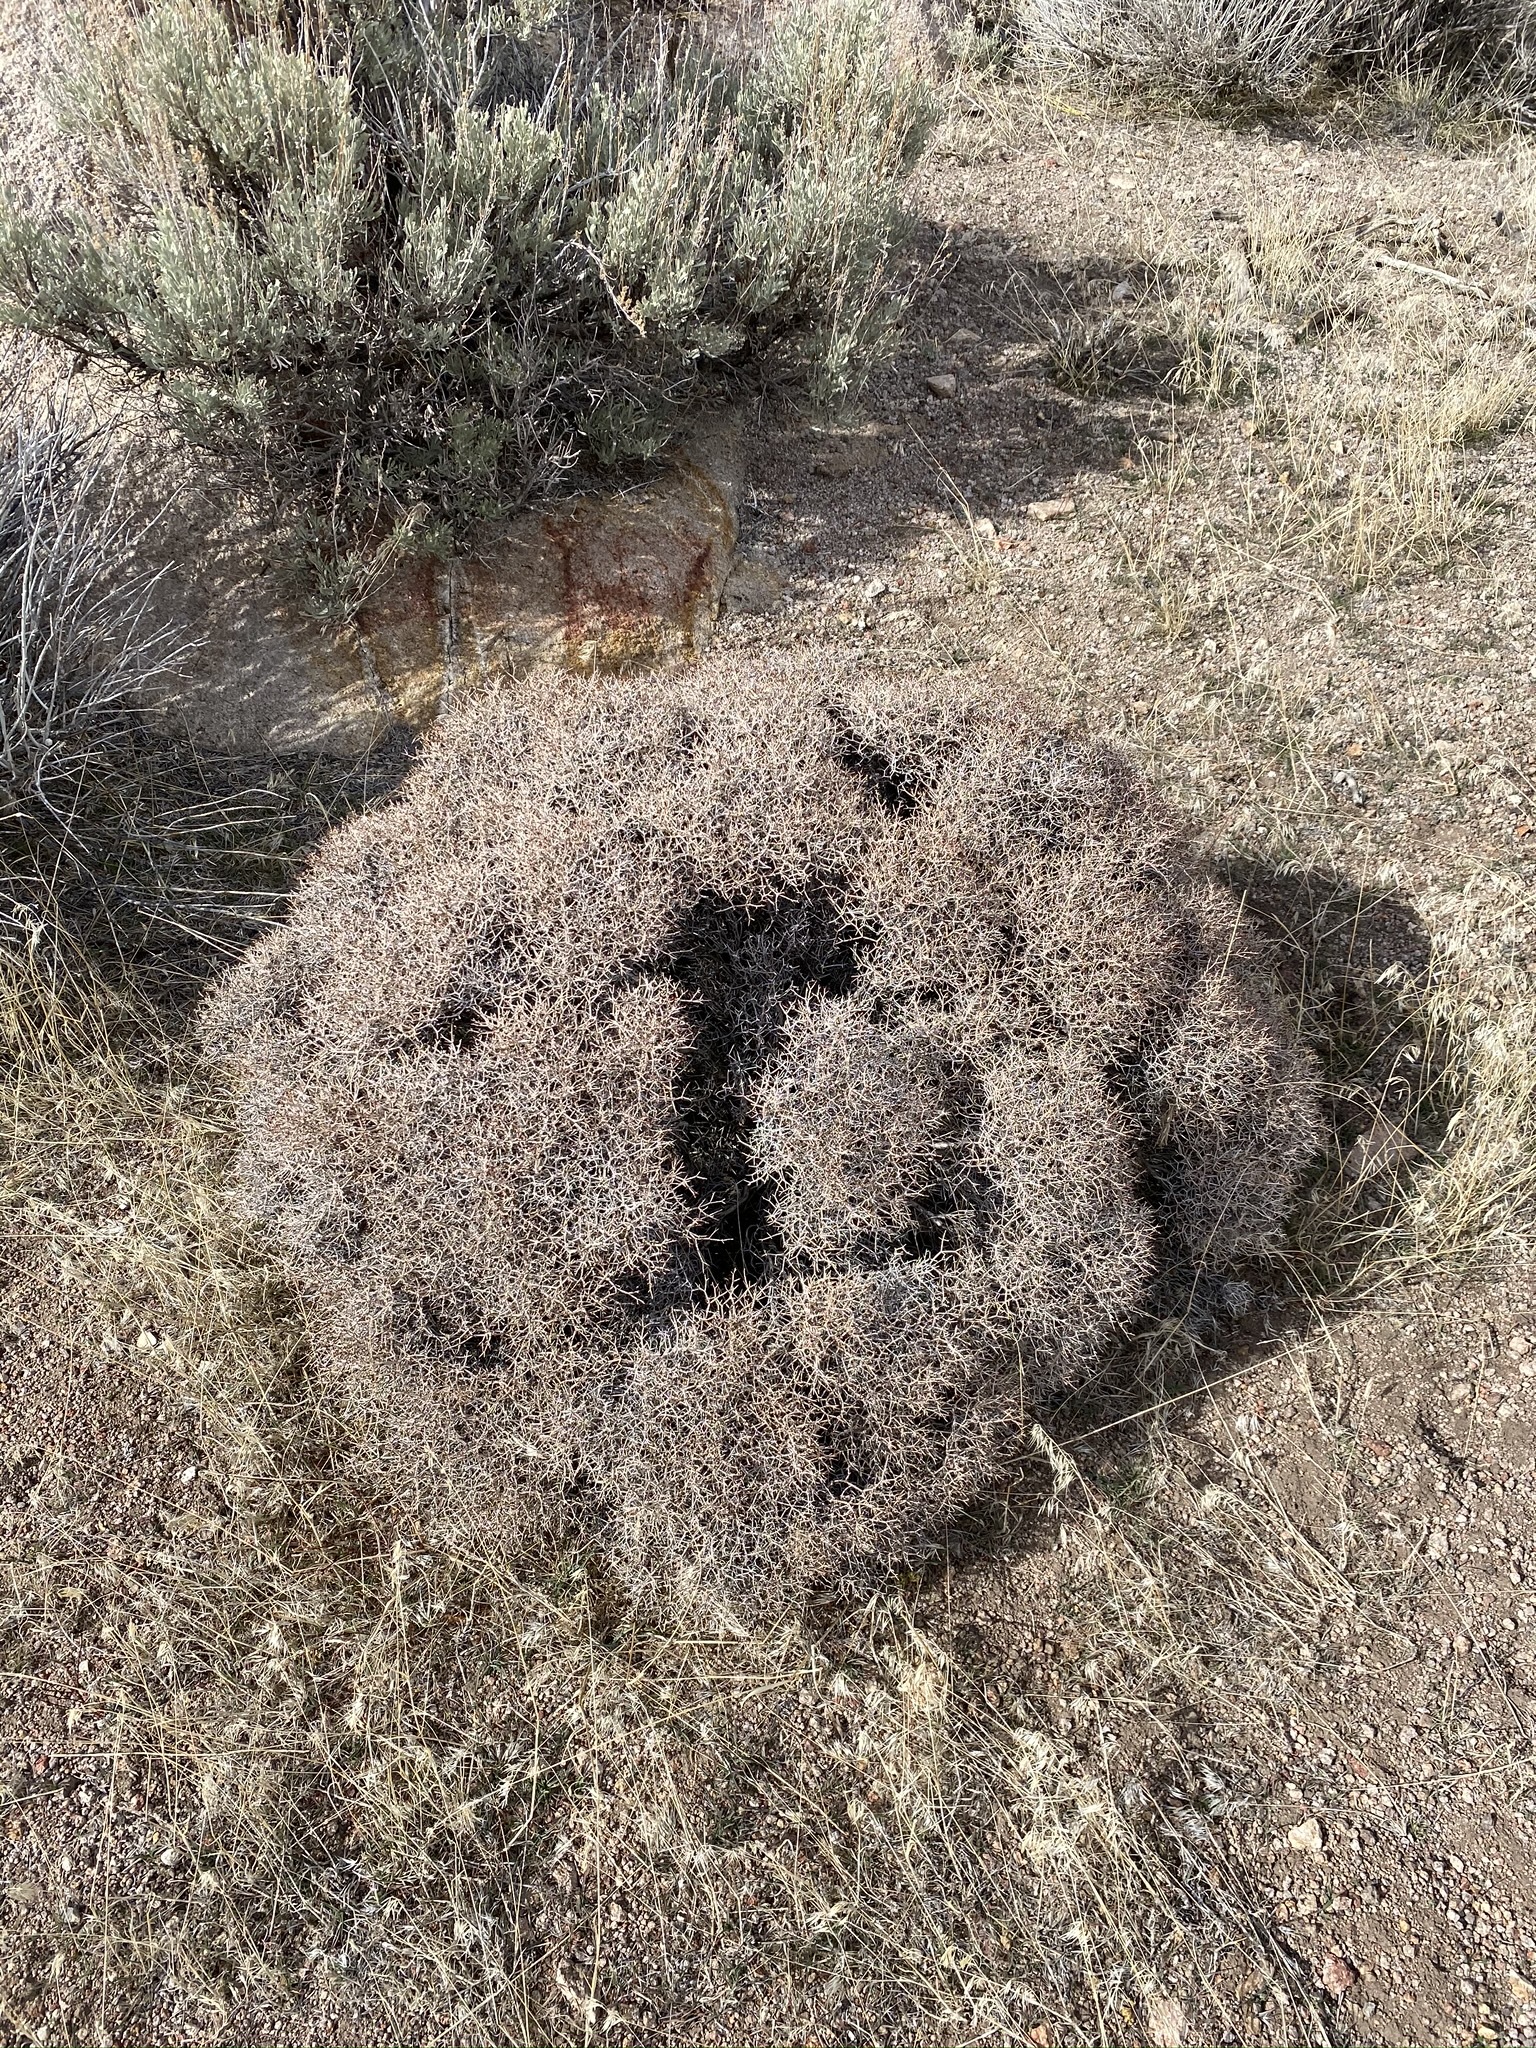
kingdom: Plantae
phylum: Tracheophyta
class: Magnoliopsida
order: Caryophyllales
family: Polygonaceae
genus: Eriogonum
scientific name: Eriogonum heermannii
